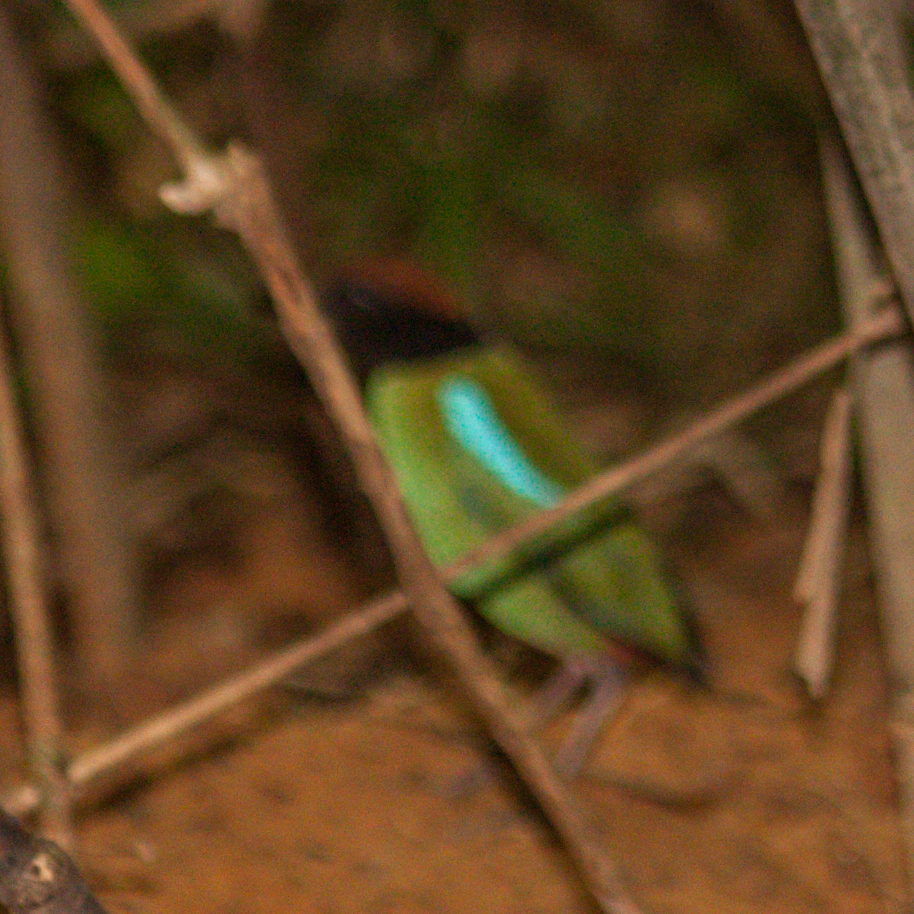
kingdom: Animalia
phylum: Chordata
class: Aves
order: Passeriformes
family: Pittidae
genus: Pitta
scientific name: Pitta sordida
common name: Hooded pitta
